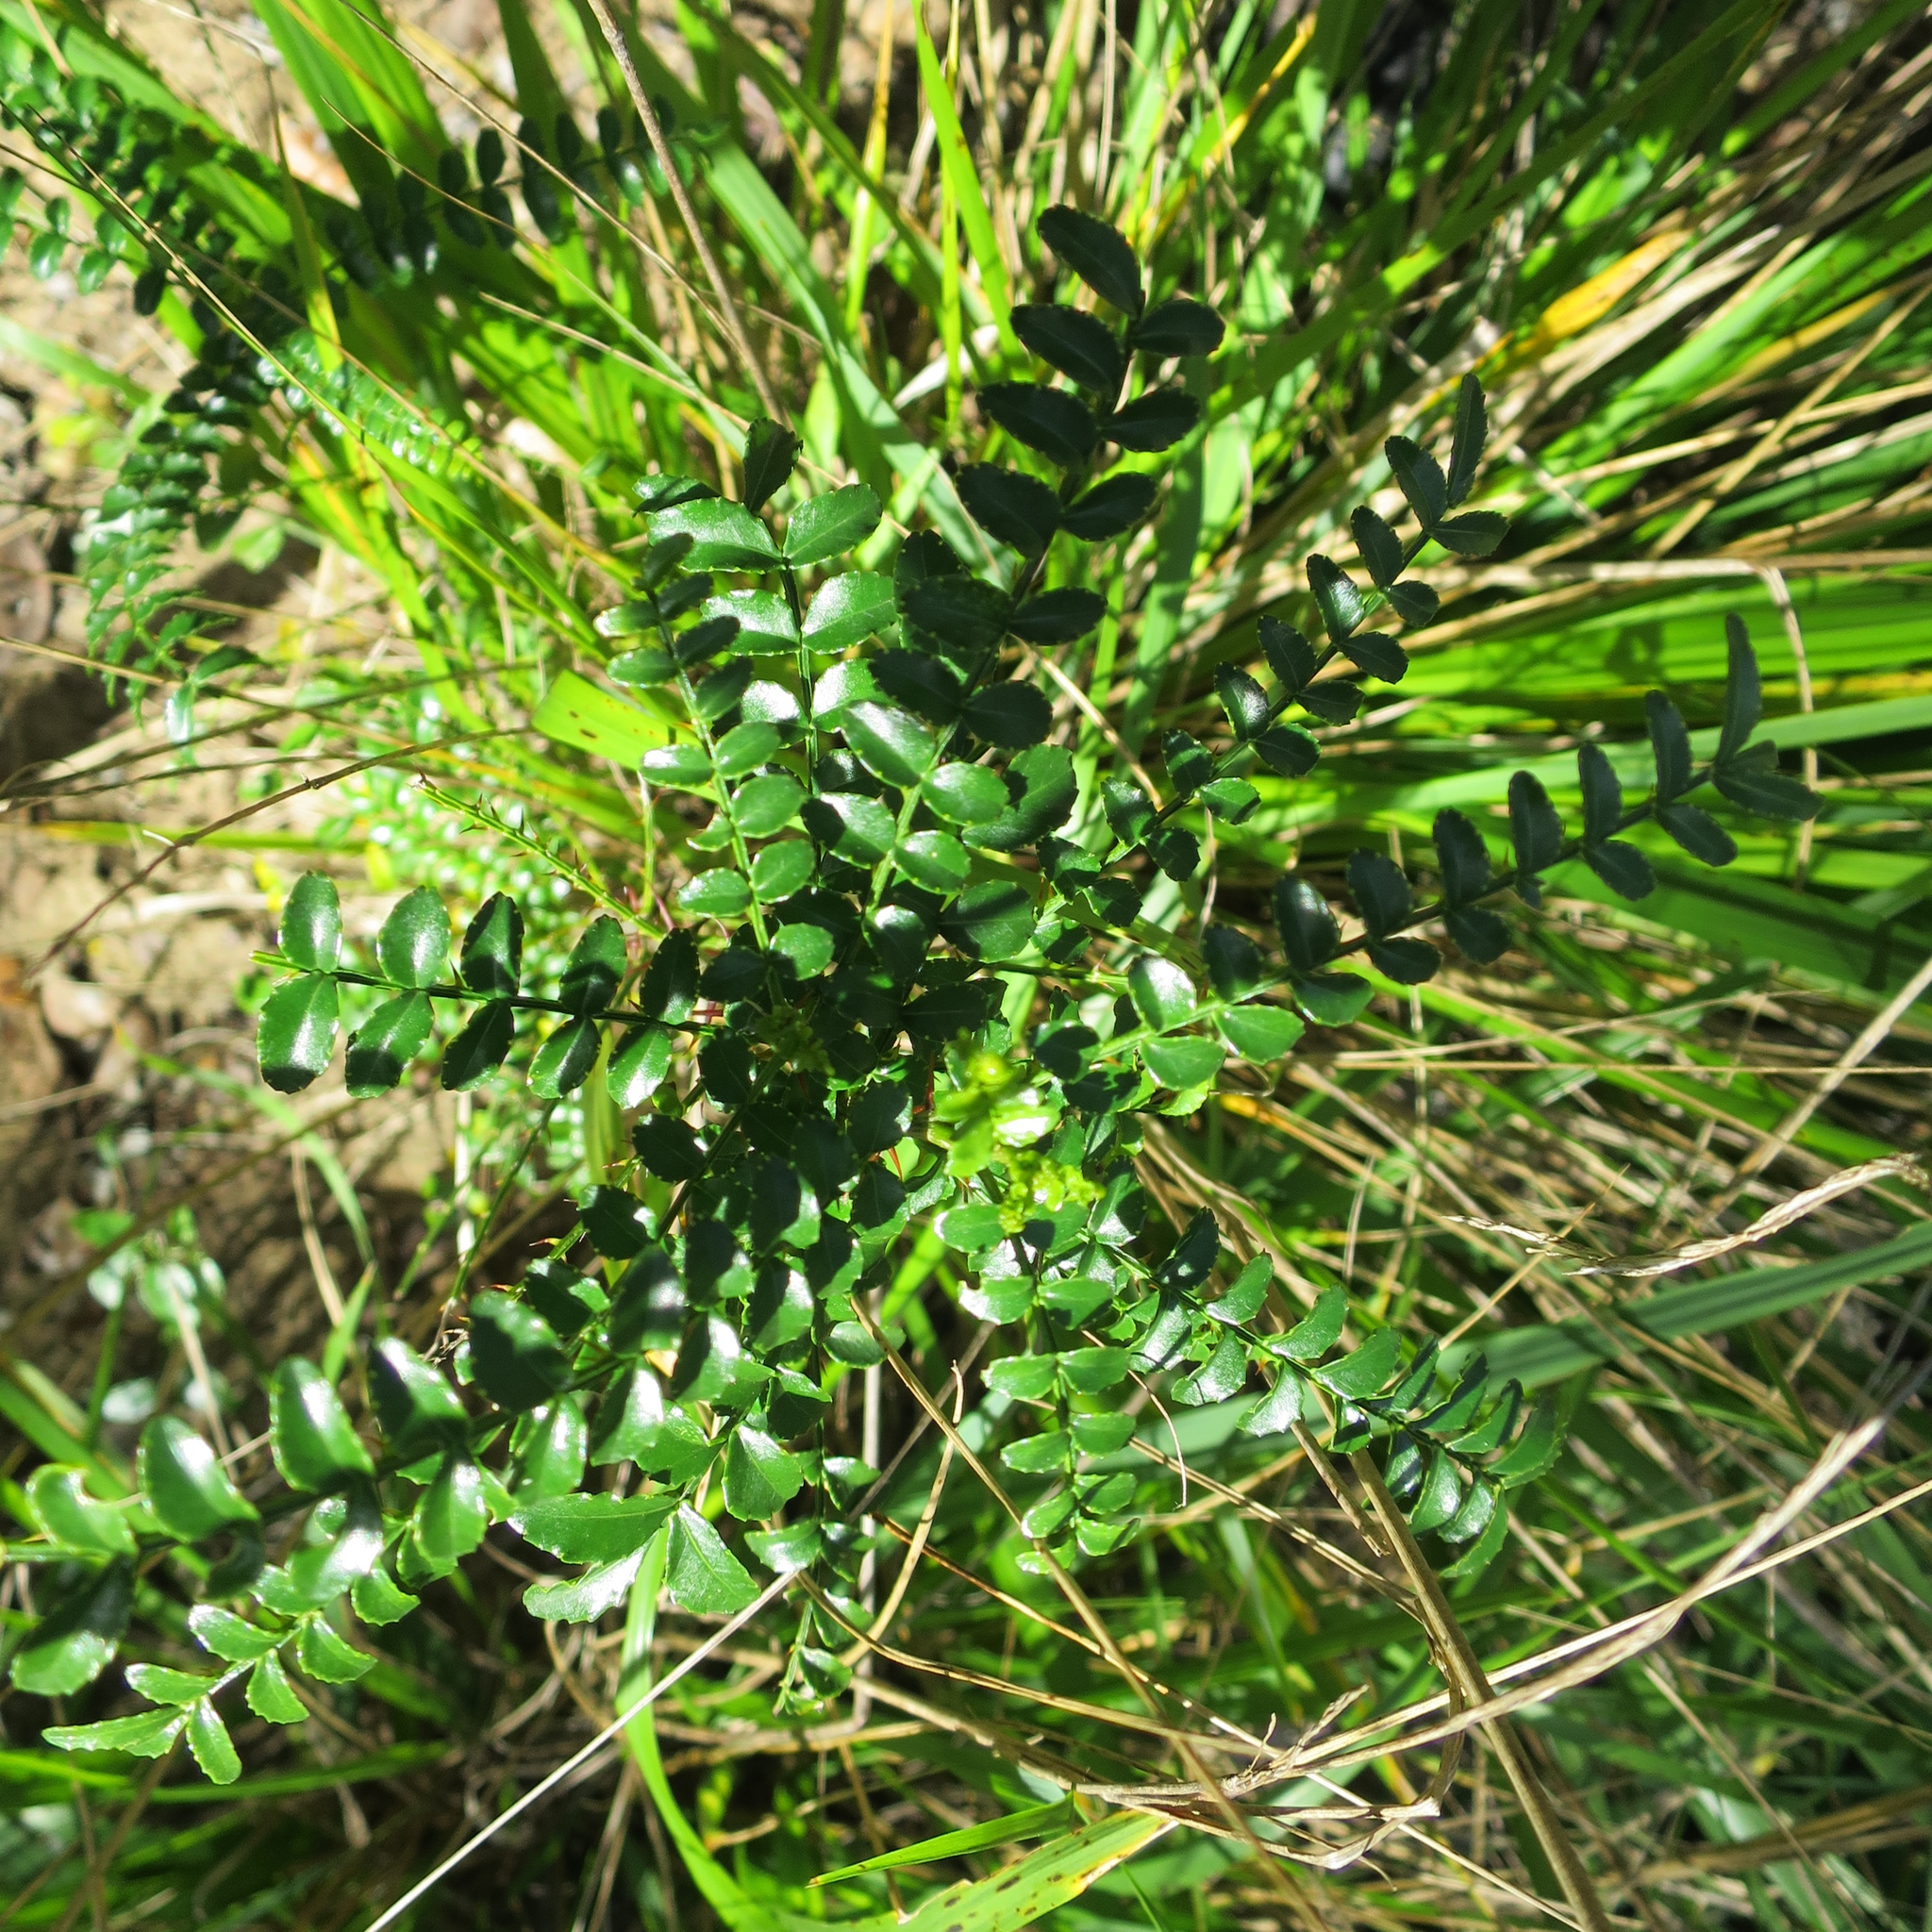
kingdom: Plantae
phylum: Tracheophyta
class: Magnoliopsida
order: Sapindales
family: Rutaceae
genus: Zanthoxylum
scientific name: Zanthoxylum capense
